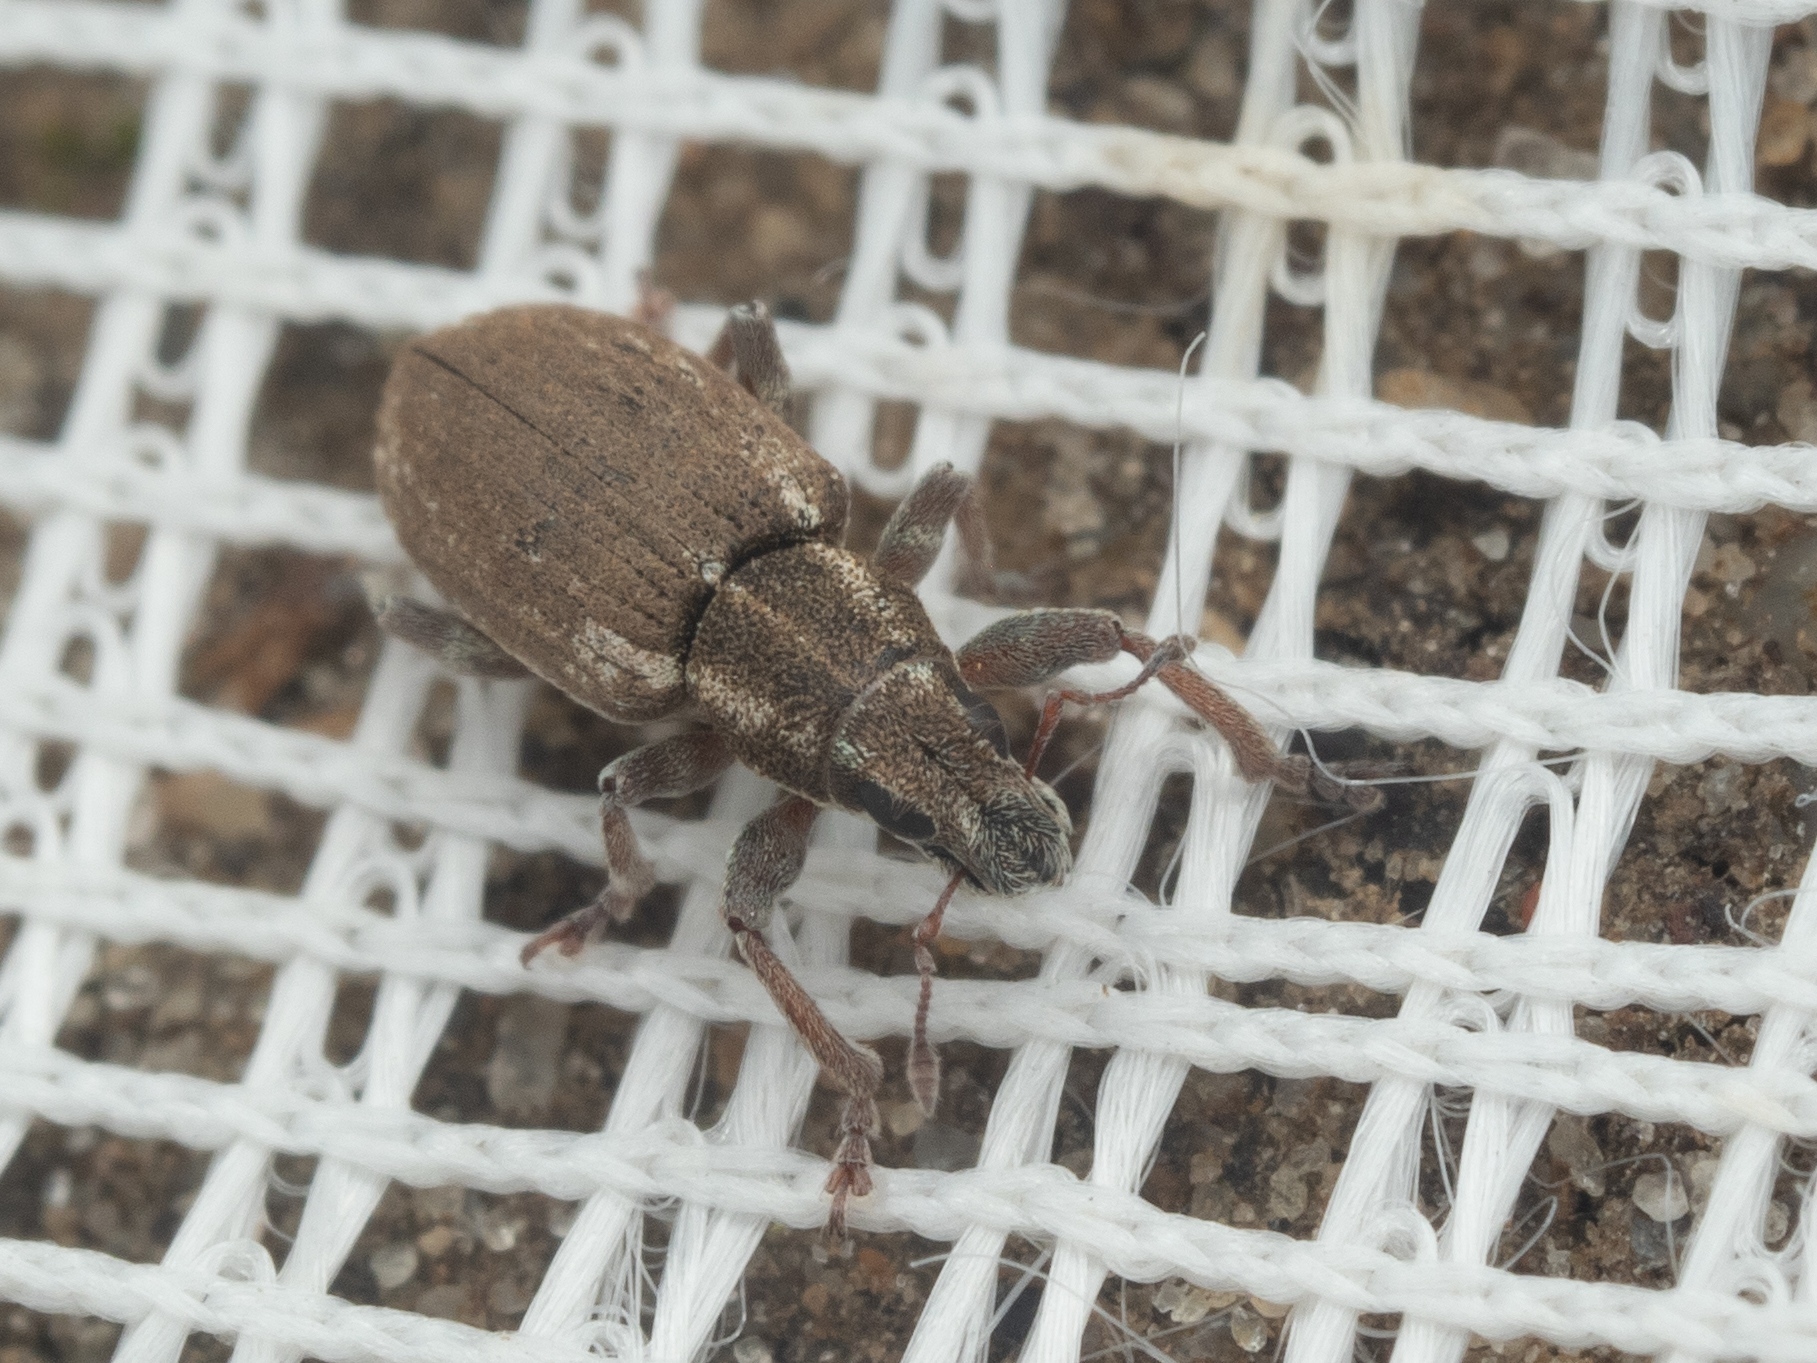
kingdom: Animalia
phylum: Arthropoda
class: Insecta
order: Coleoptera
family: Curculionidae
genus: Sitona
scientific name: Sitona humeralis
